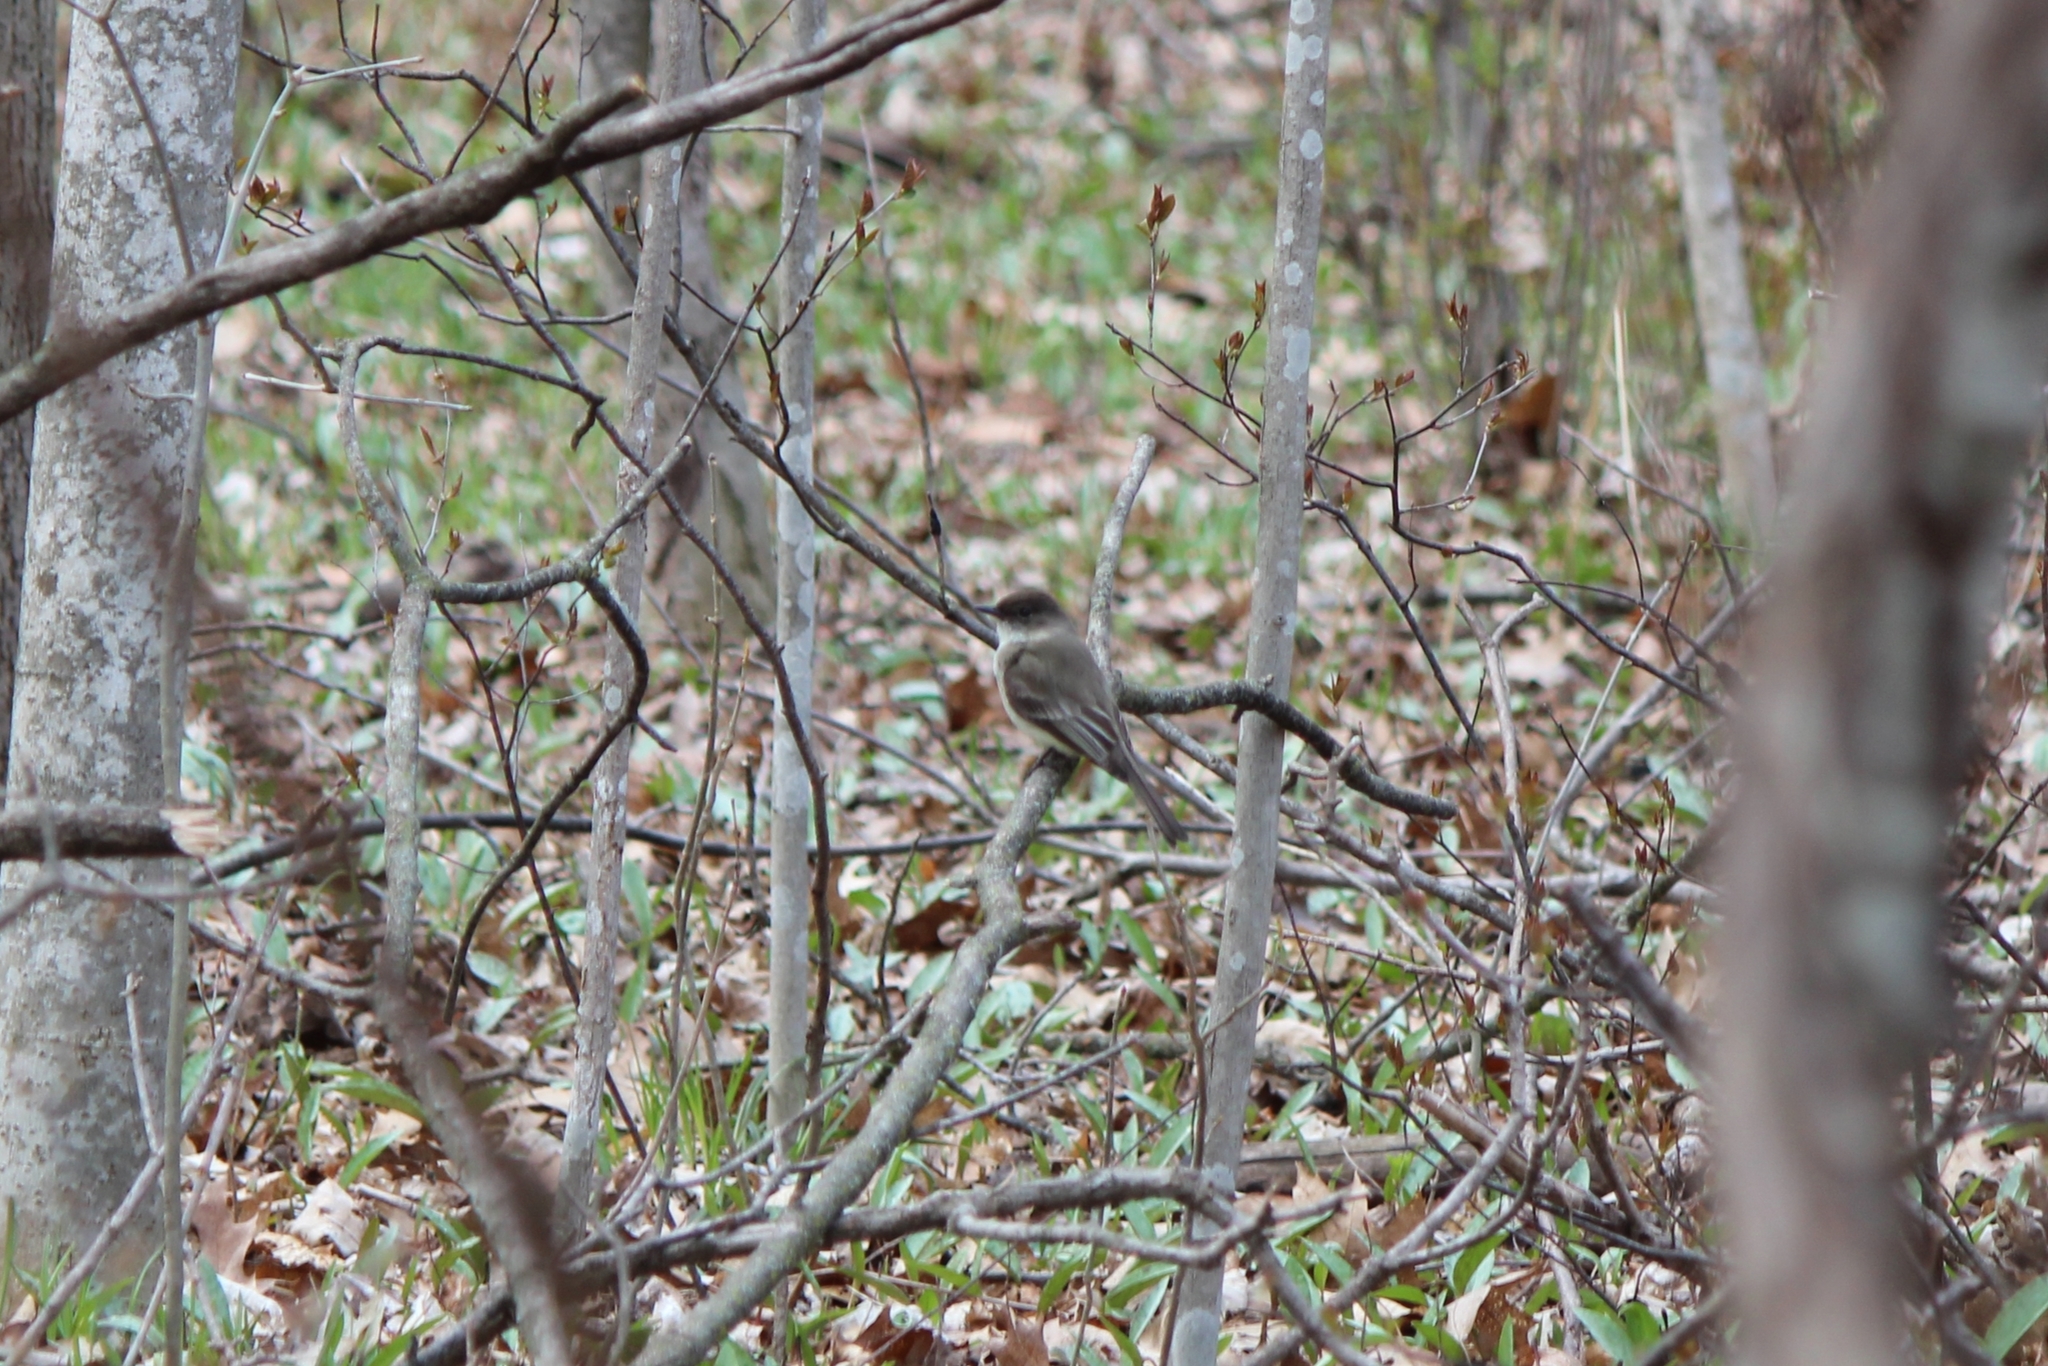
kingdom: Animalia
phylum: Chordata
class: Aves
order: Passeriformes
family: Tyrannidae
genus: Sayornis
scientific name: Sayornis phoebe
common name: Eastern phoebe
